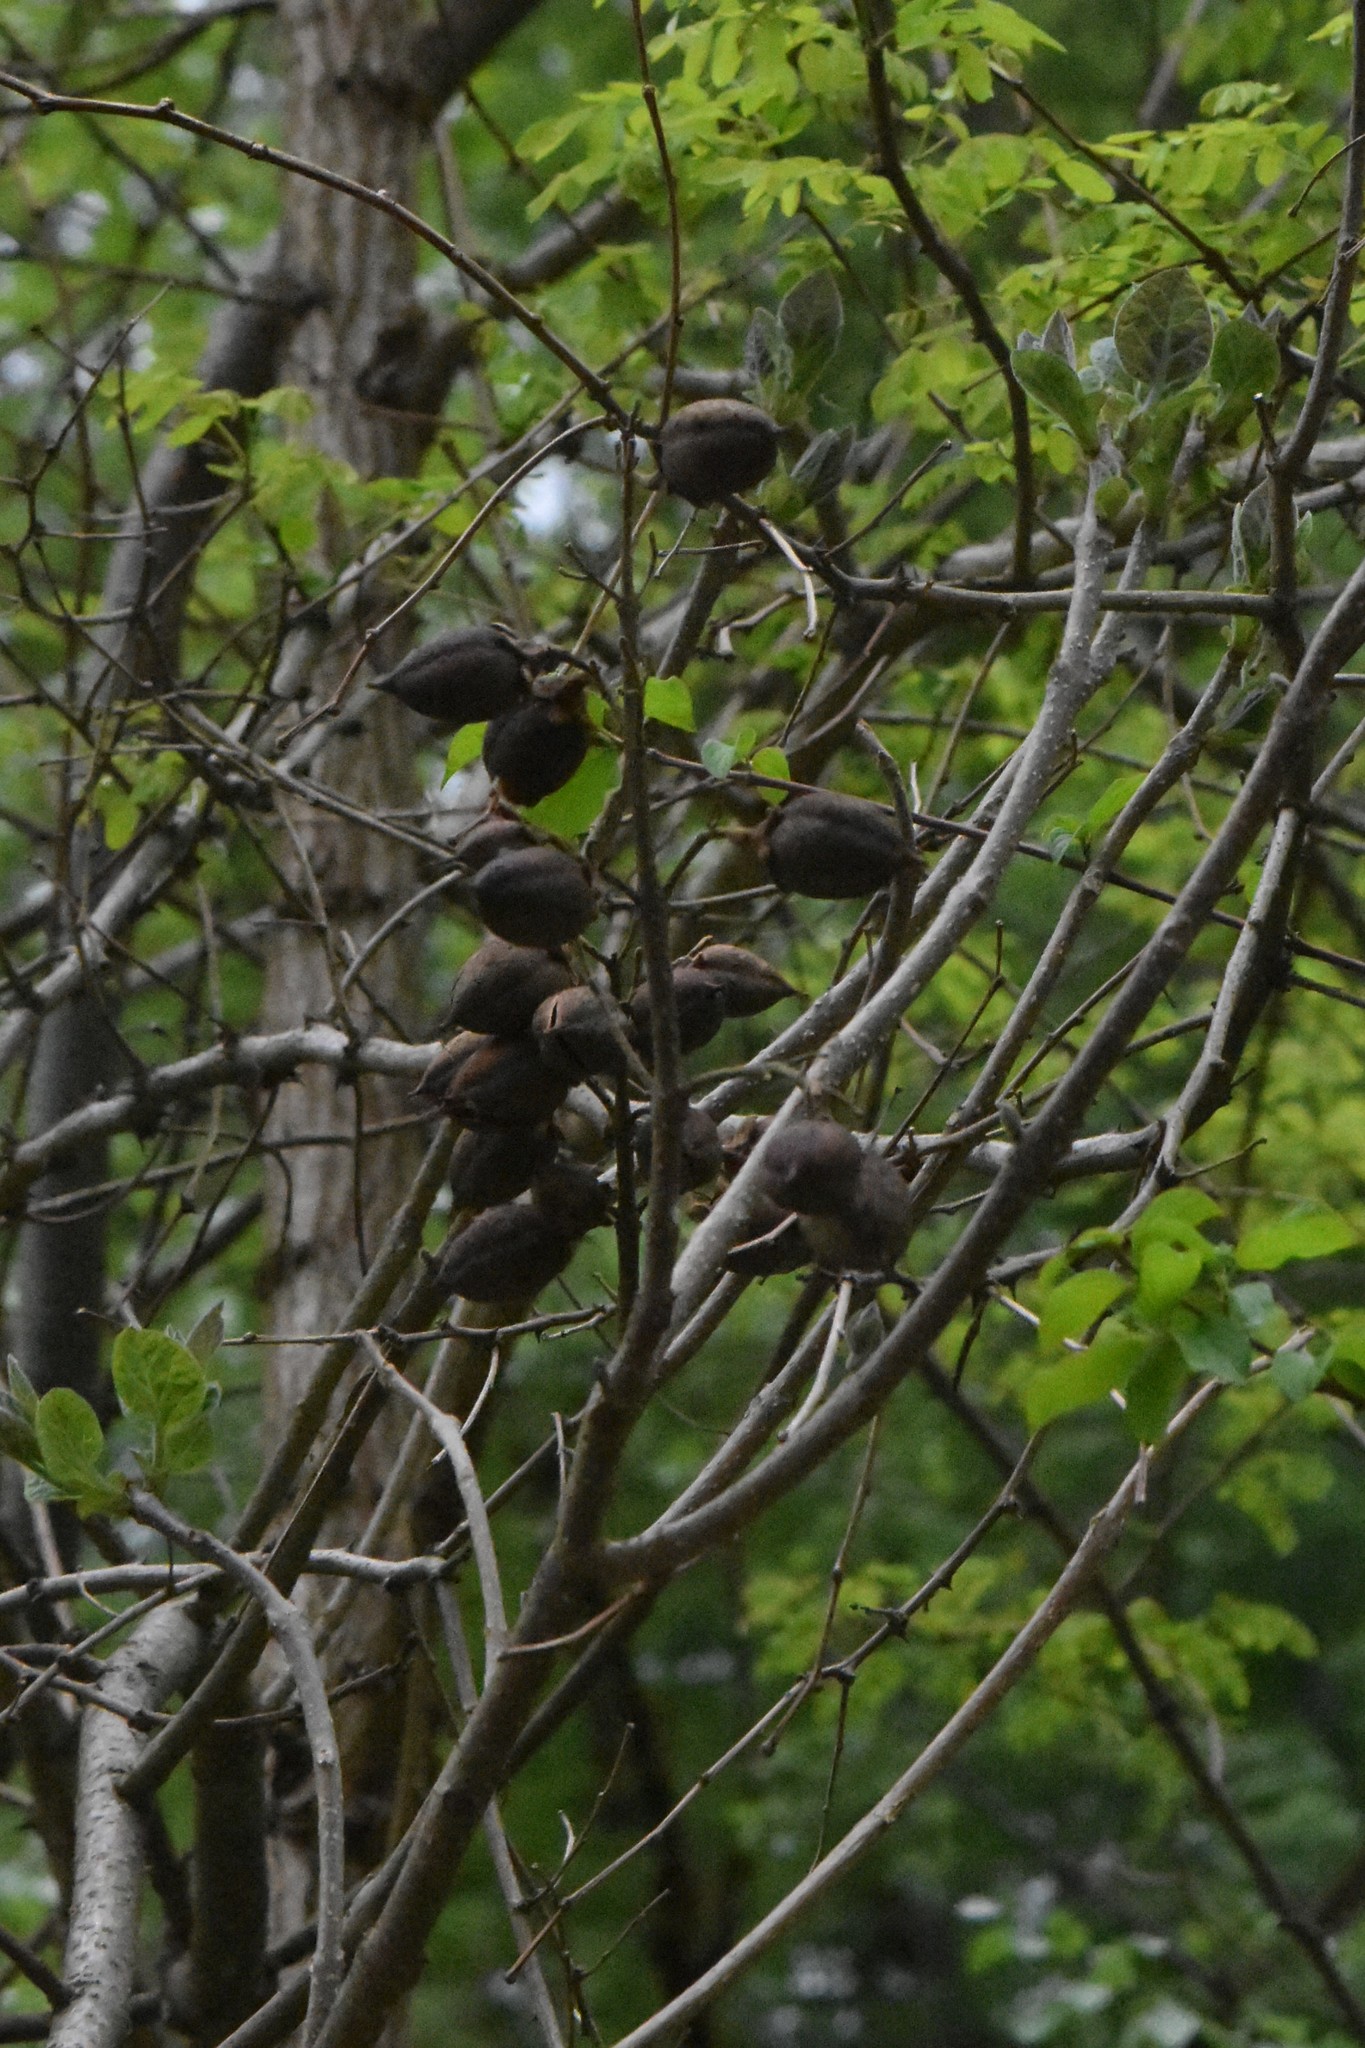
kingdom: Plantae
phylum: Tracheophyta
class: Magnoliopsida
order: Lamiales
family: Paulowniaceae
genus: Paulownia
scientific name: Paulownia tomentosa
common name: Foxglove-tree
